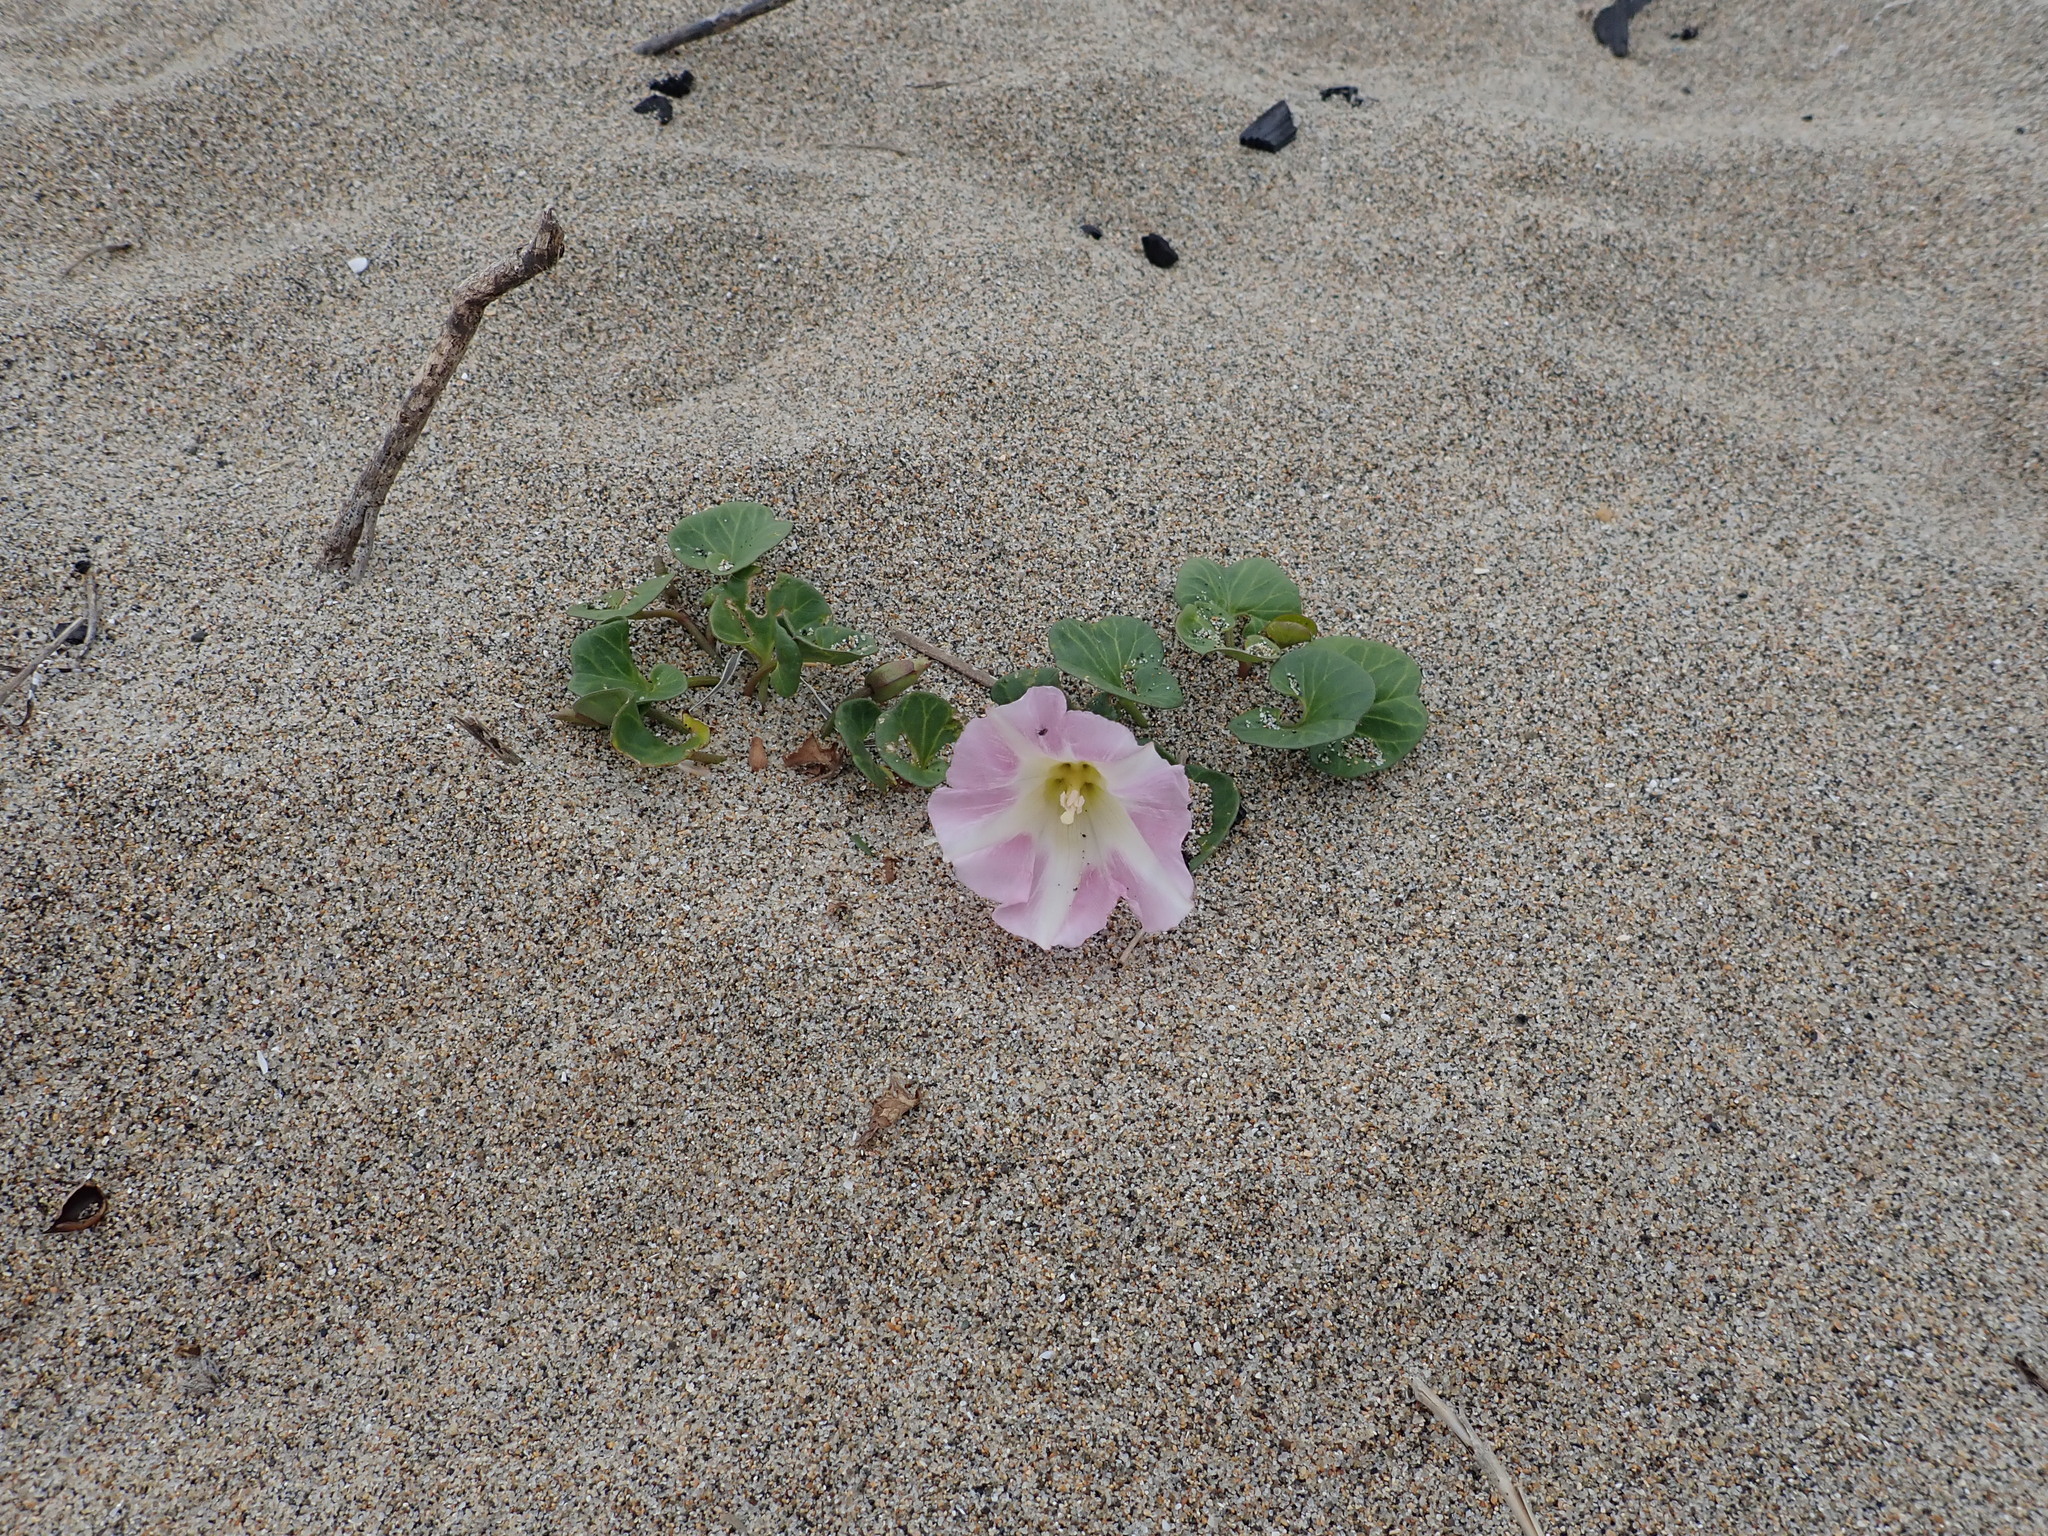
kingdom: Plantae
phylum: Tracheophyta
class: Magnoliopsida
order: Solanales
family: Convolvulaceae
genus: Calystegia
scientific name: Calystegia soldanella
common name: Sea bindweed
